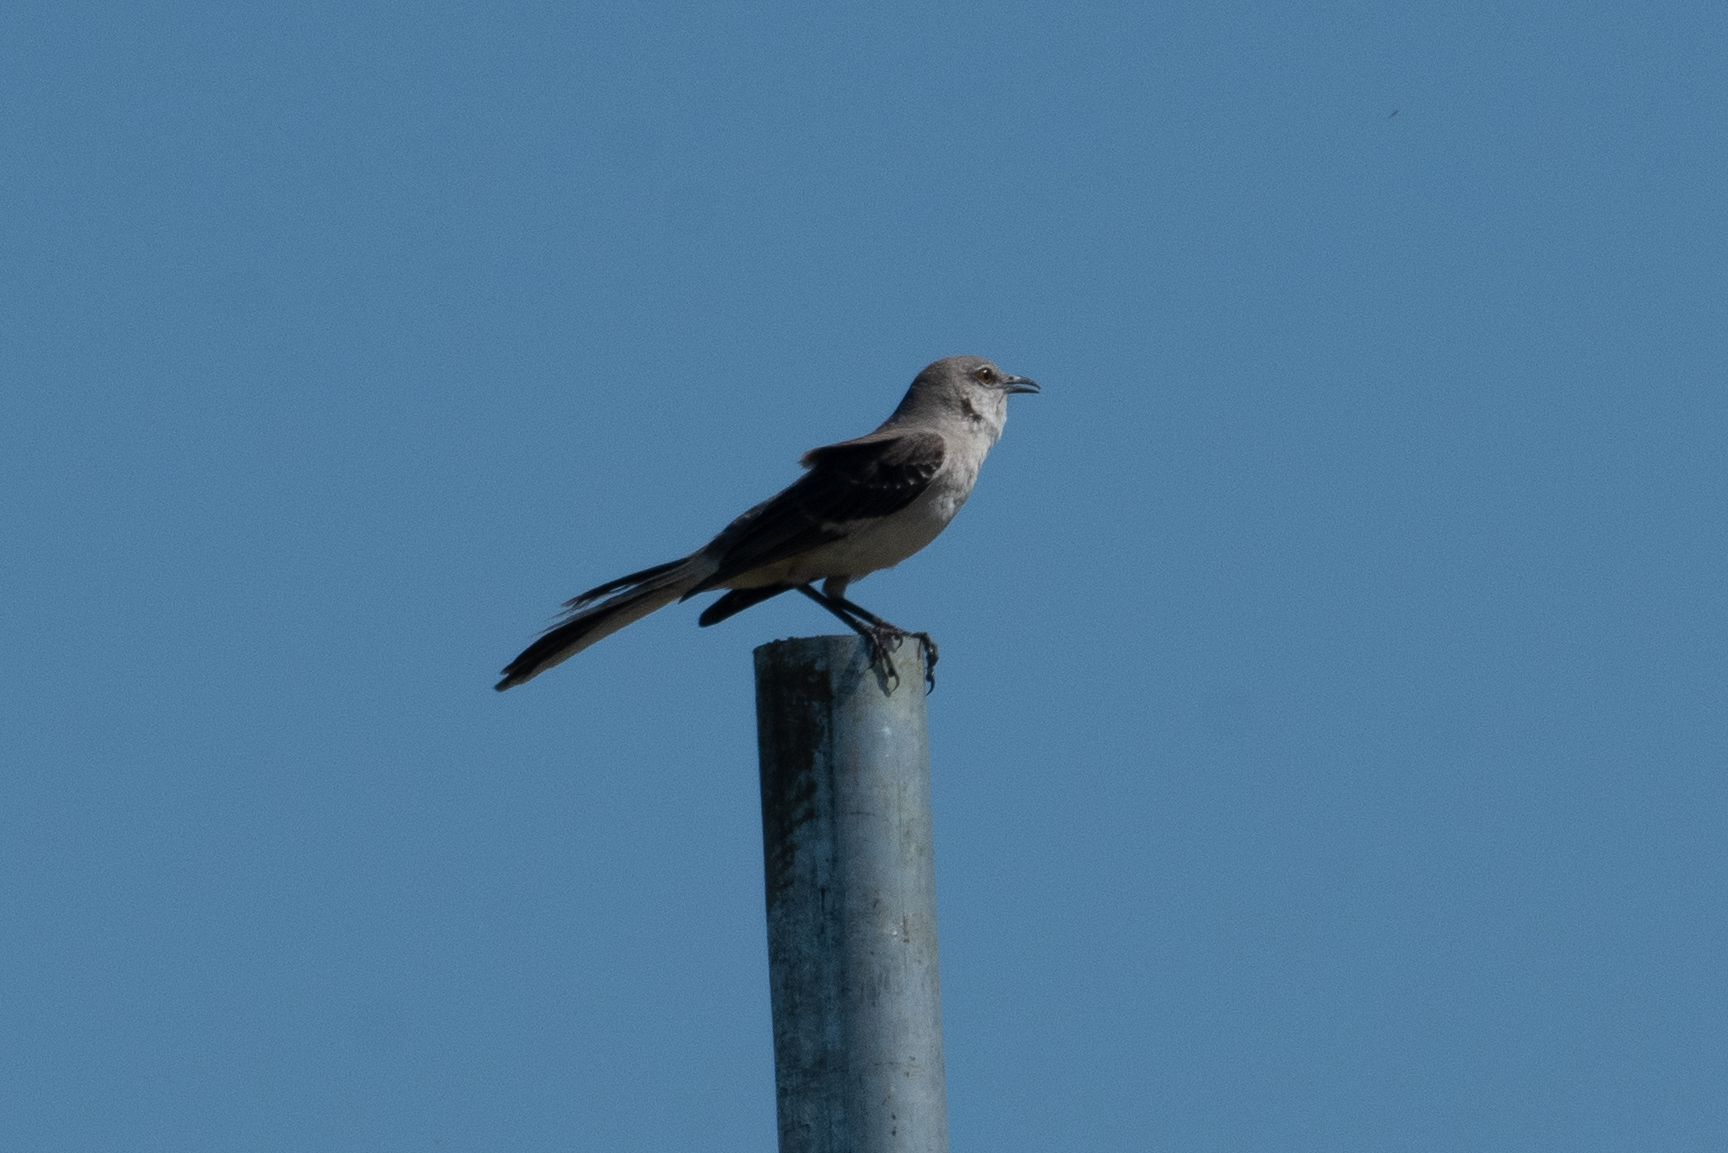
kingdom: Animalia
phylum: Chordata
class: Aves
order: Passeriformes
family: Mimidae
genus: Mimus
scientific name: Mimus polyglottos
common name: Northern mockingbird
